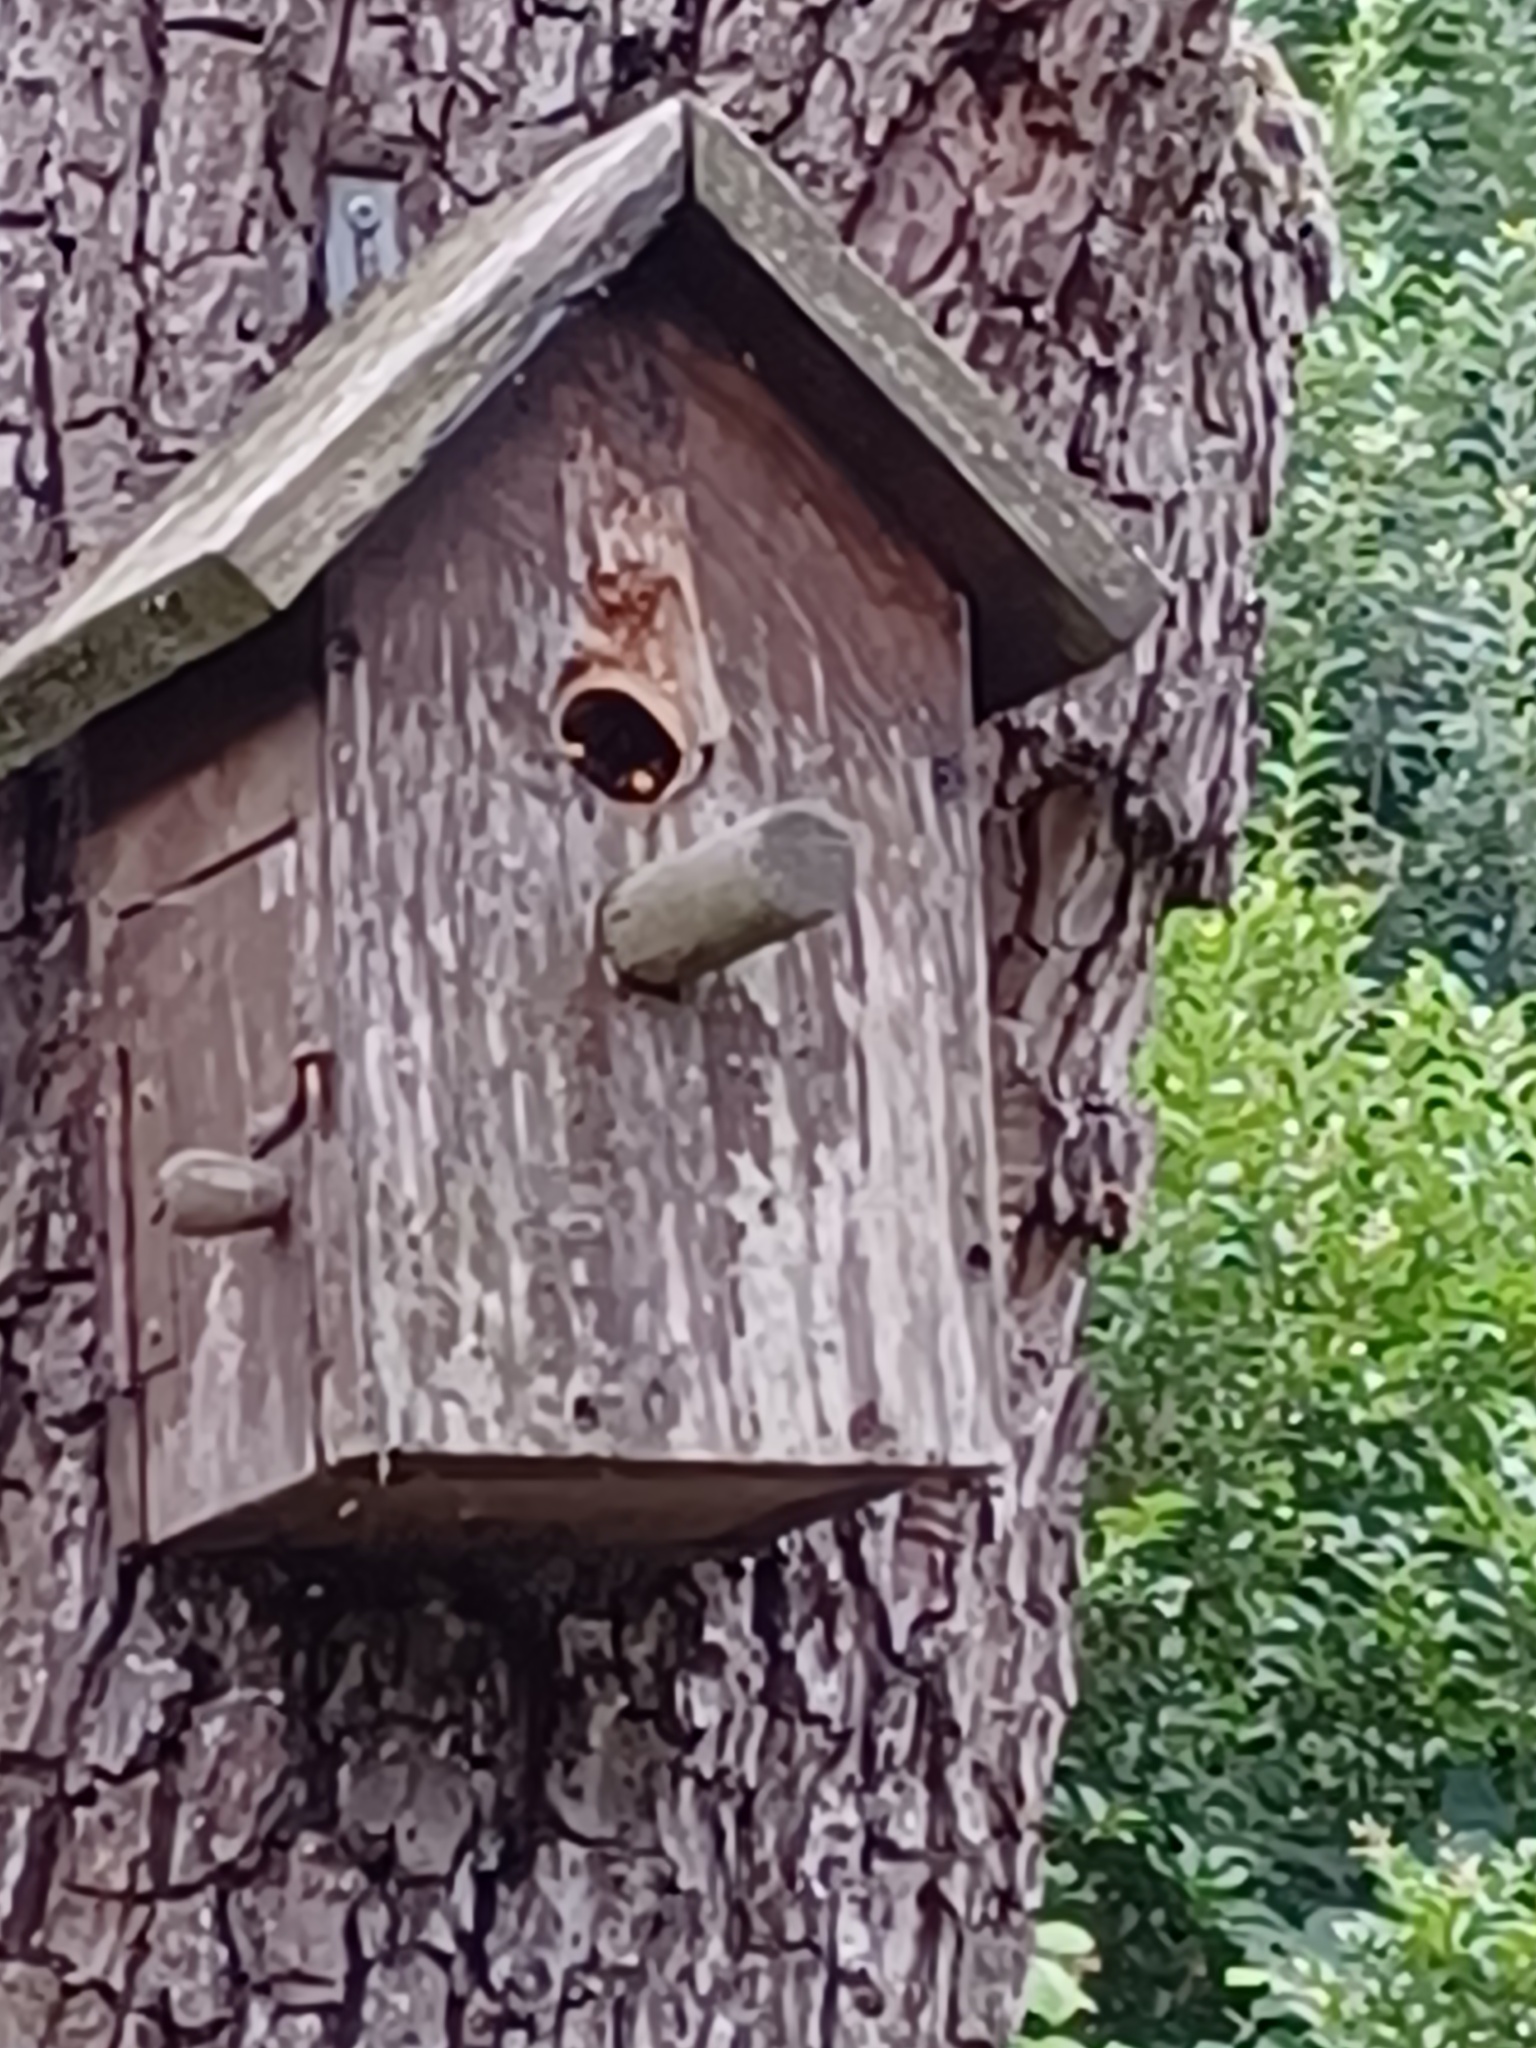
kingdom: Animalia
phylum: Arthropoda
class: Insecta
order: Hymenoptera
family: Vespidae
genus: Vespa
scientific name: Vespa crabro
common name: Hornet
